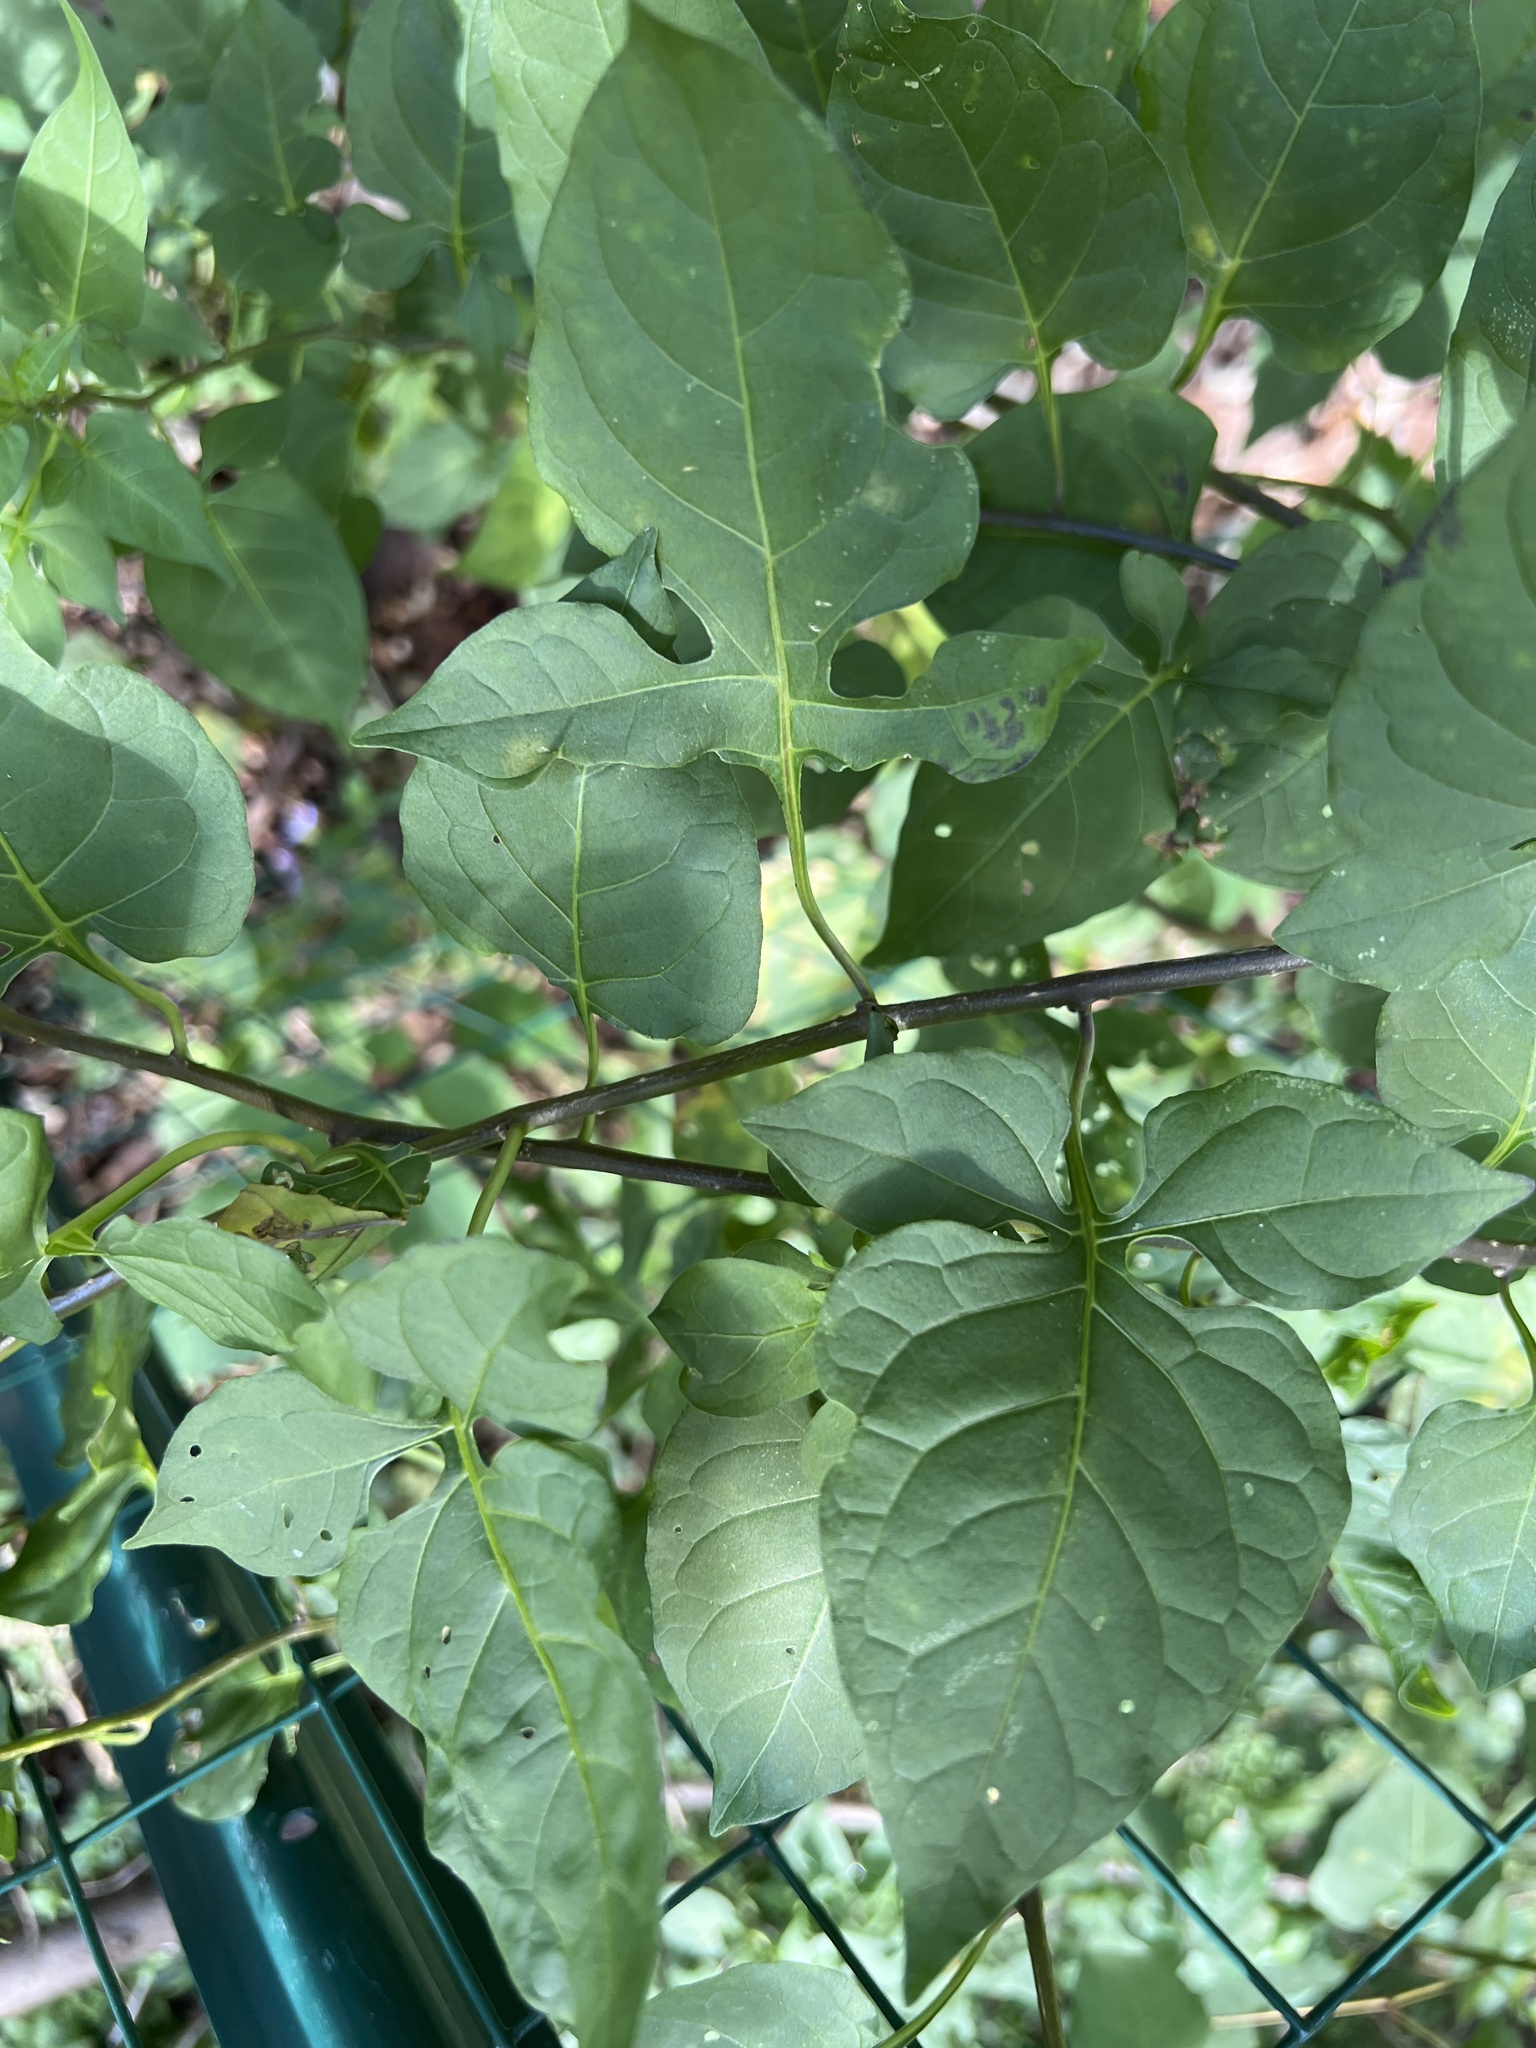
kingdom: Plantae
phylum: Tracheophyta
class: Magnoliopsida
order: Solanales
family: Solanaceae
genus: Solanum
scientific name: Solanum dulcamara
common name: Climbing nightshade
